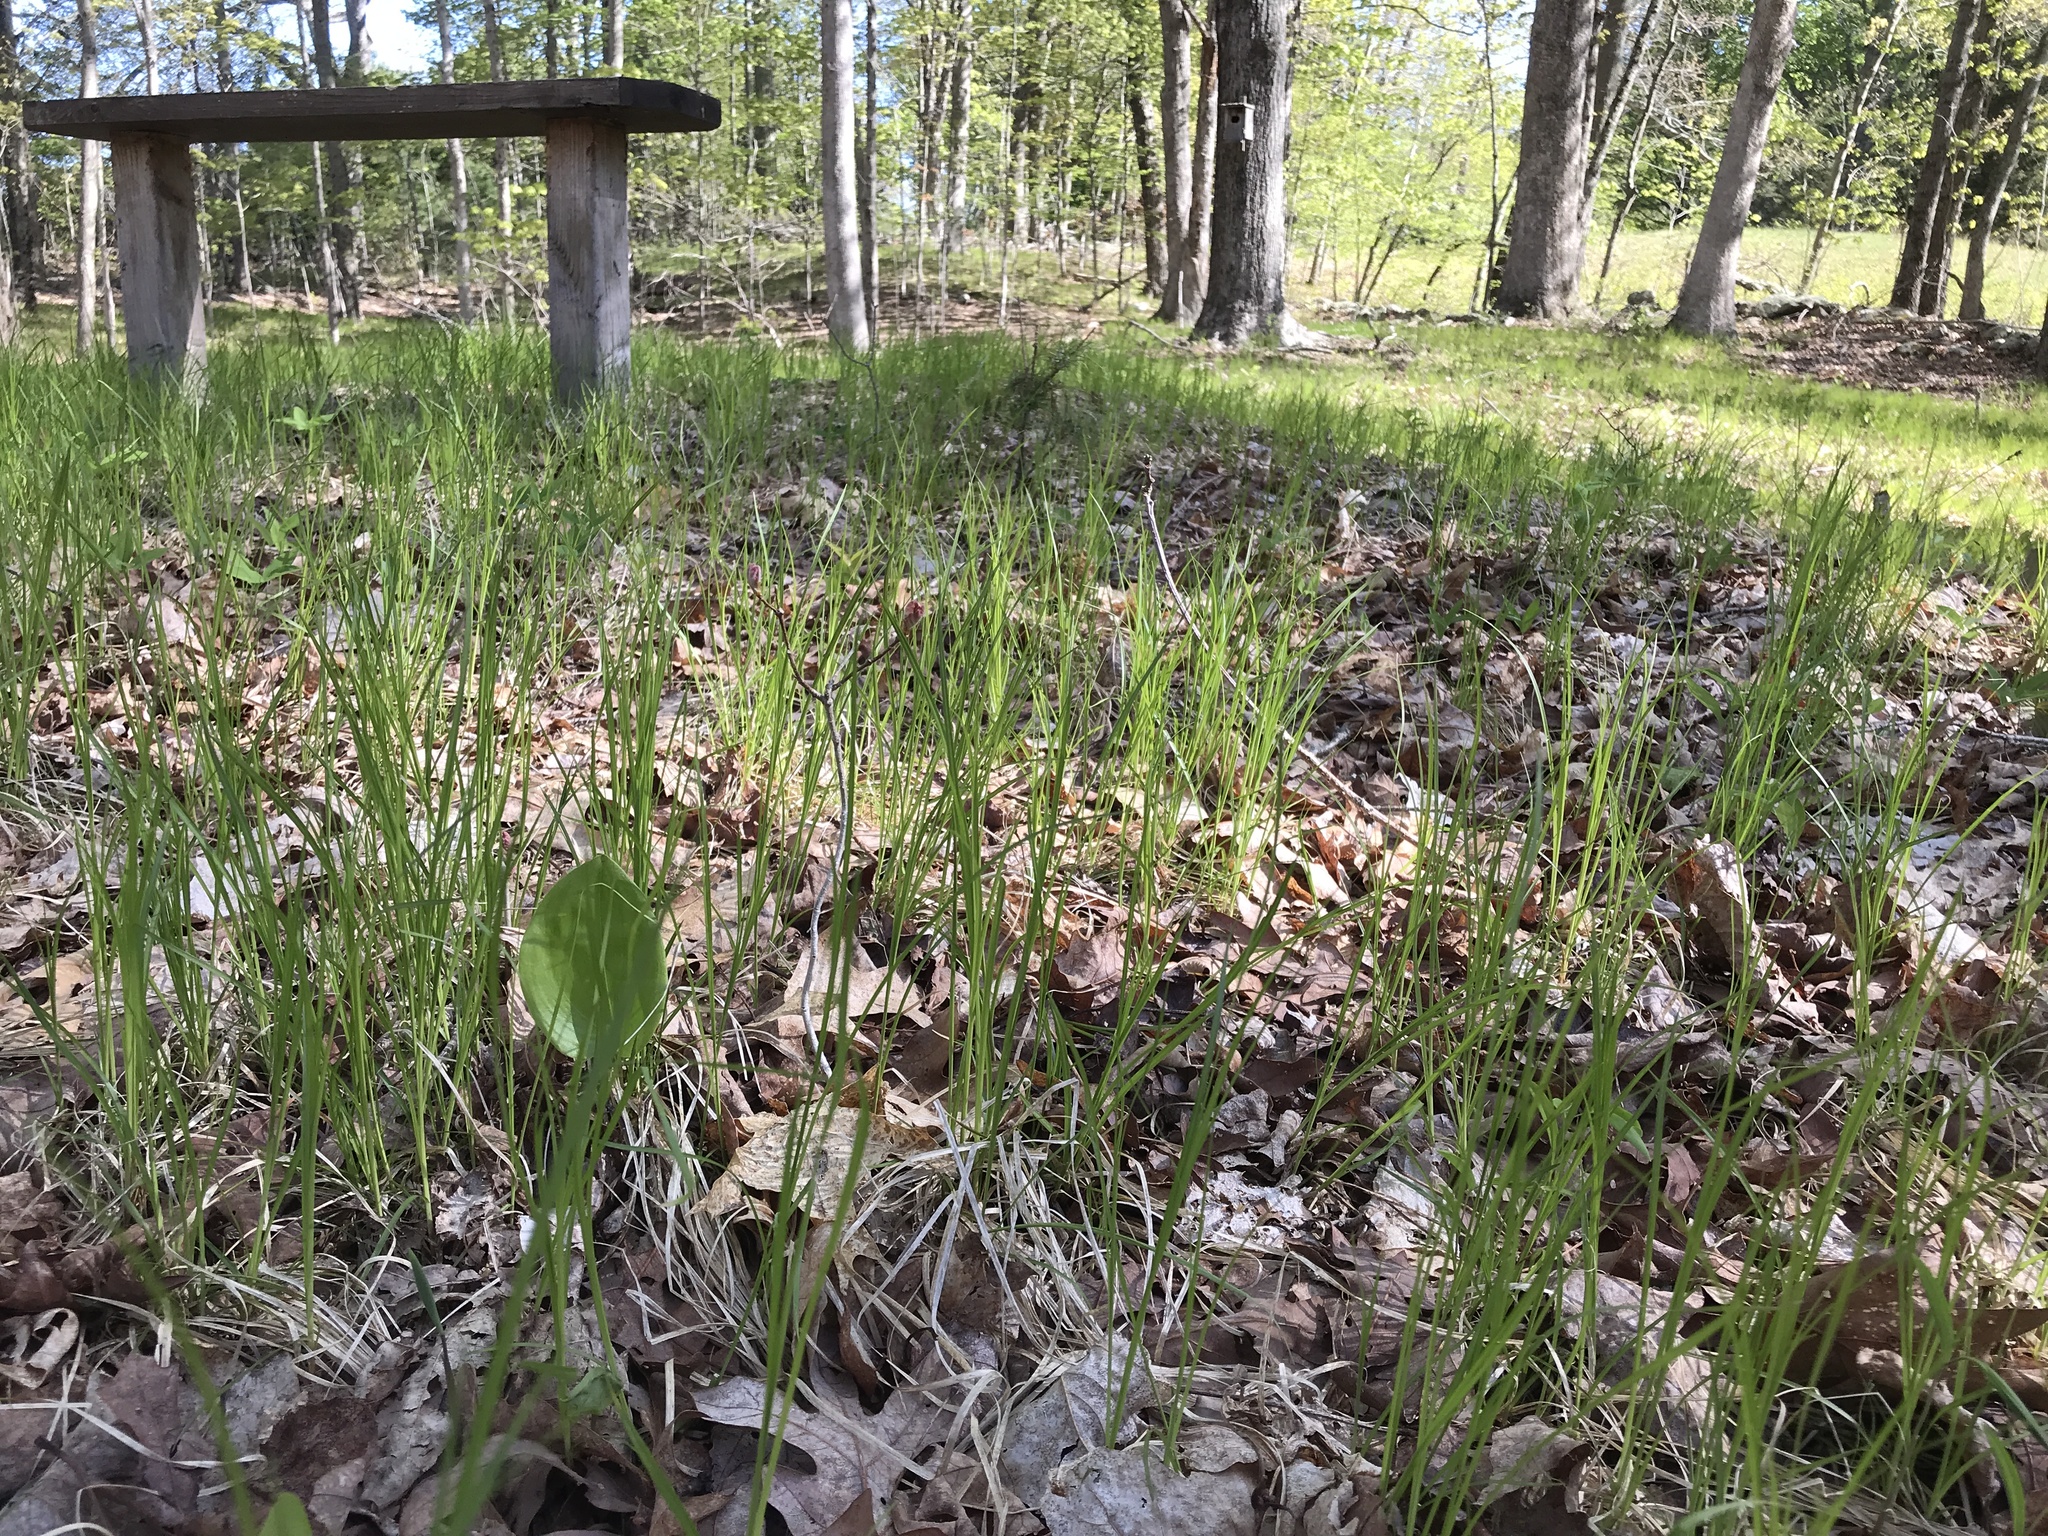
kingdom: Plantae
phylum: Tracheophyta
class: Liliopsida
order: Poales
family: Cyperaceae
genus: Carex
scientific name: Carex pensylvanica
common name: Common oak sedge
